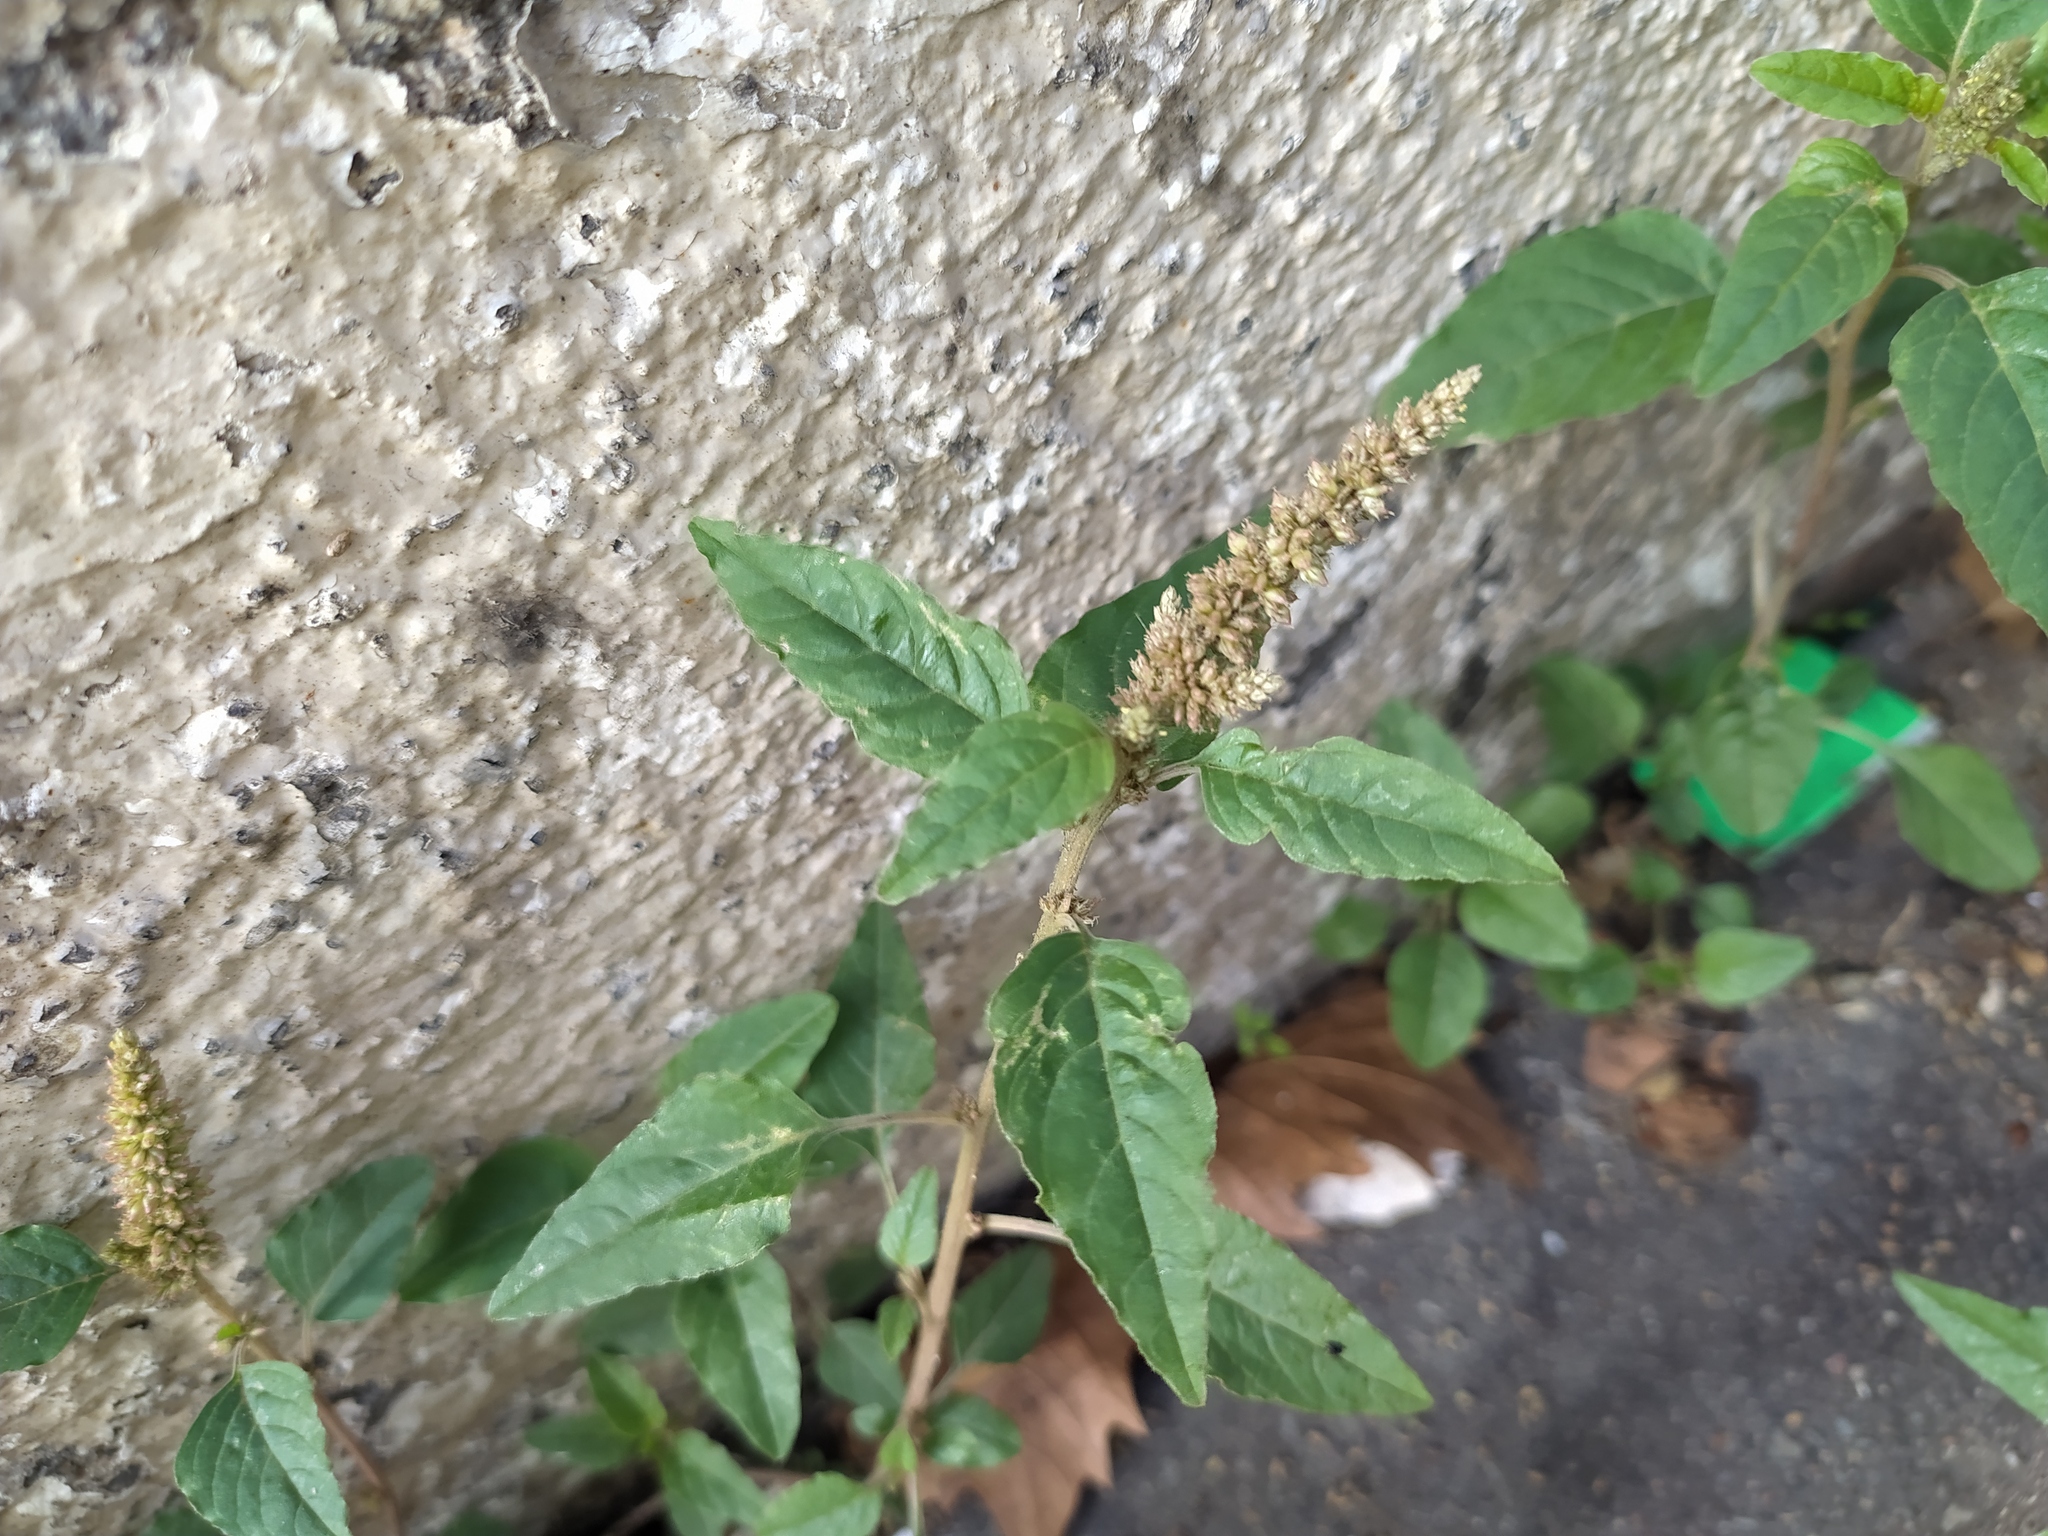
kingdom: Plantae
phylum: Tracheophyta
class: Magnoliopsida
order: Caryophyllales
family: Amaranthaceae
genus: Amaranthus
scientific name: Amaranthus deflexus
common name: Perennial pigweed
